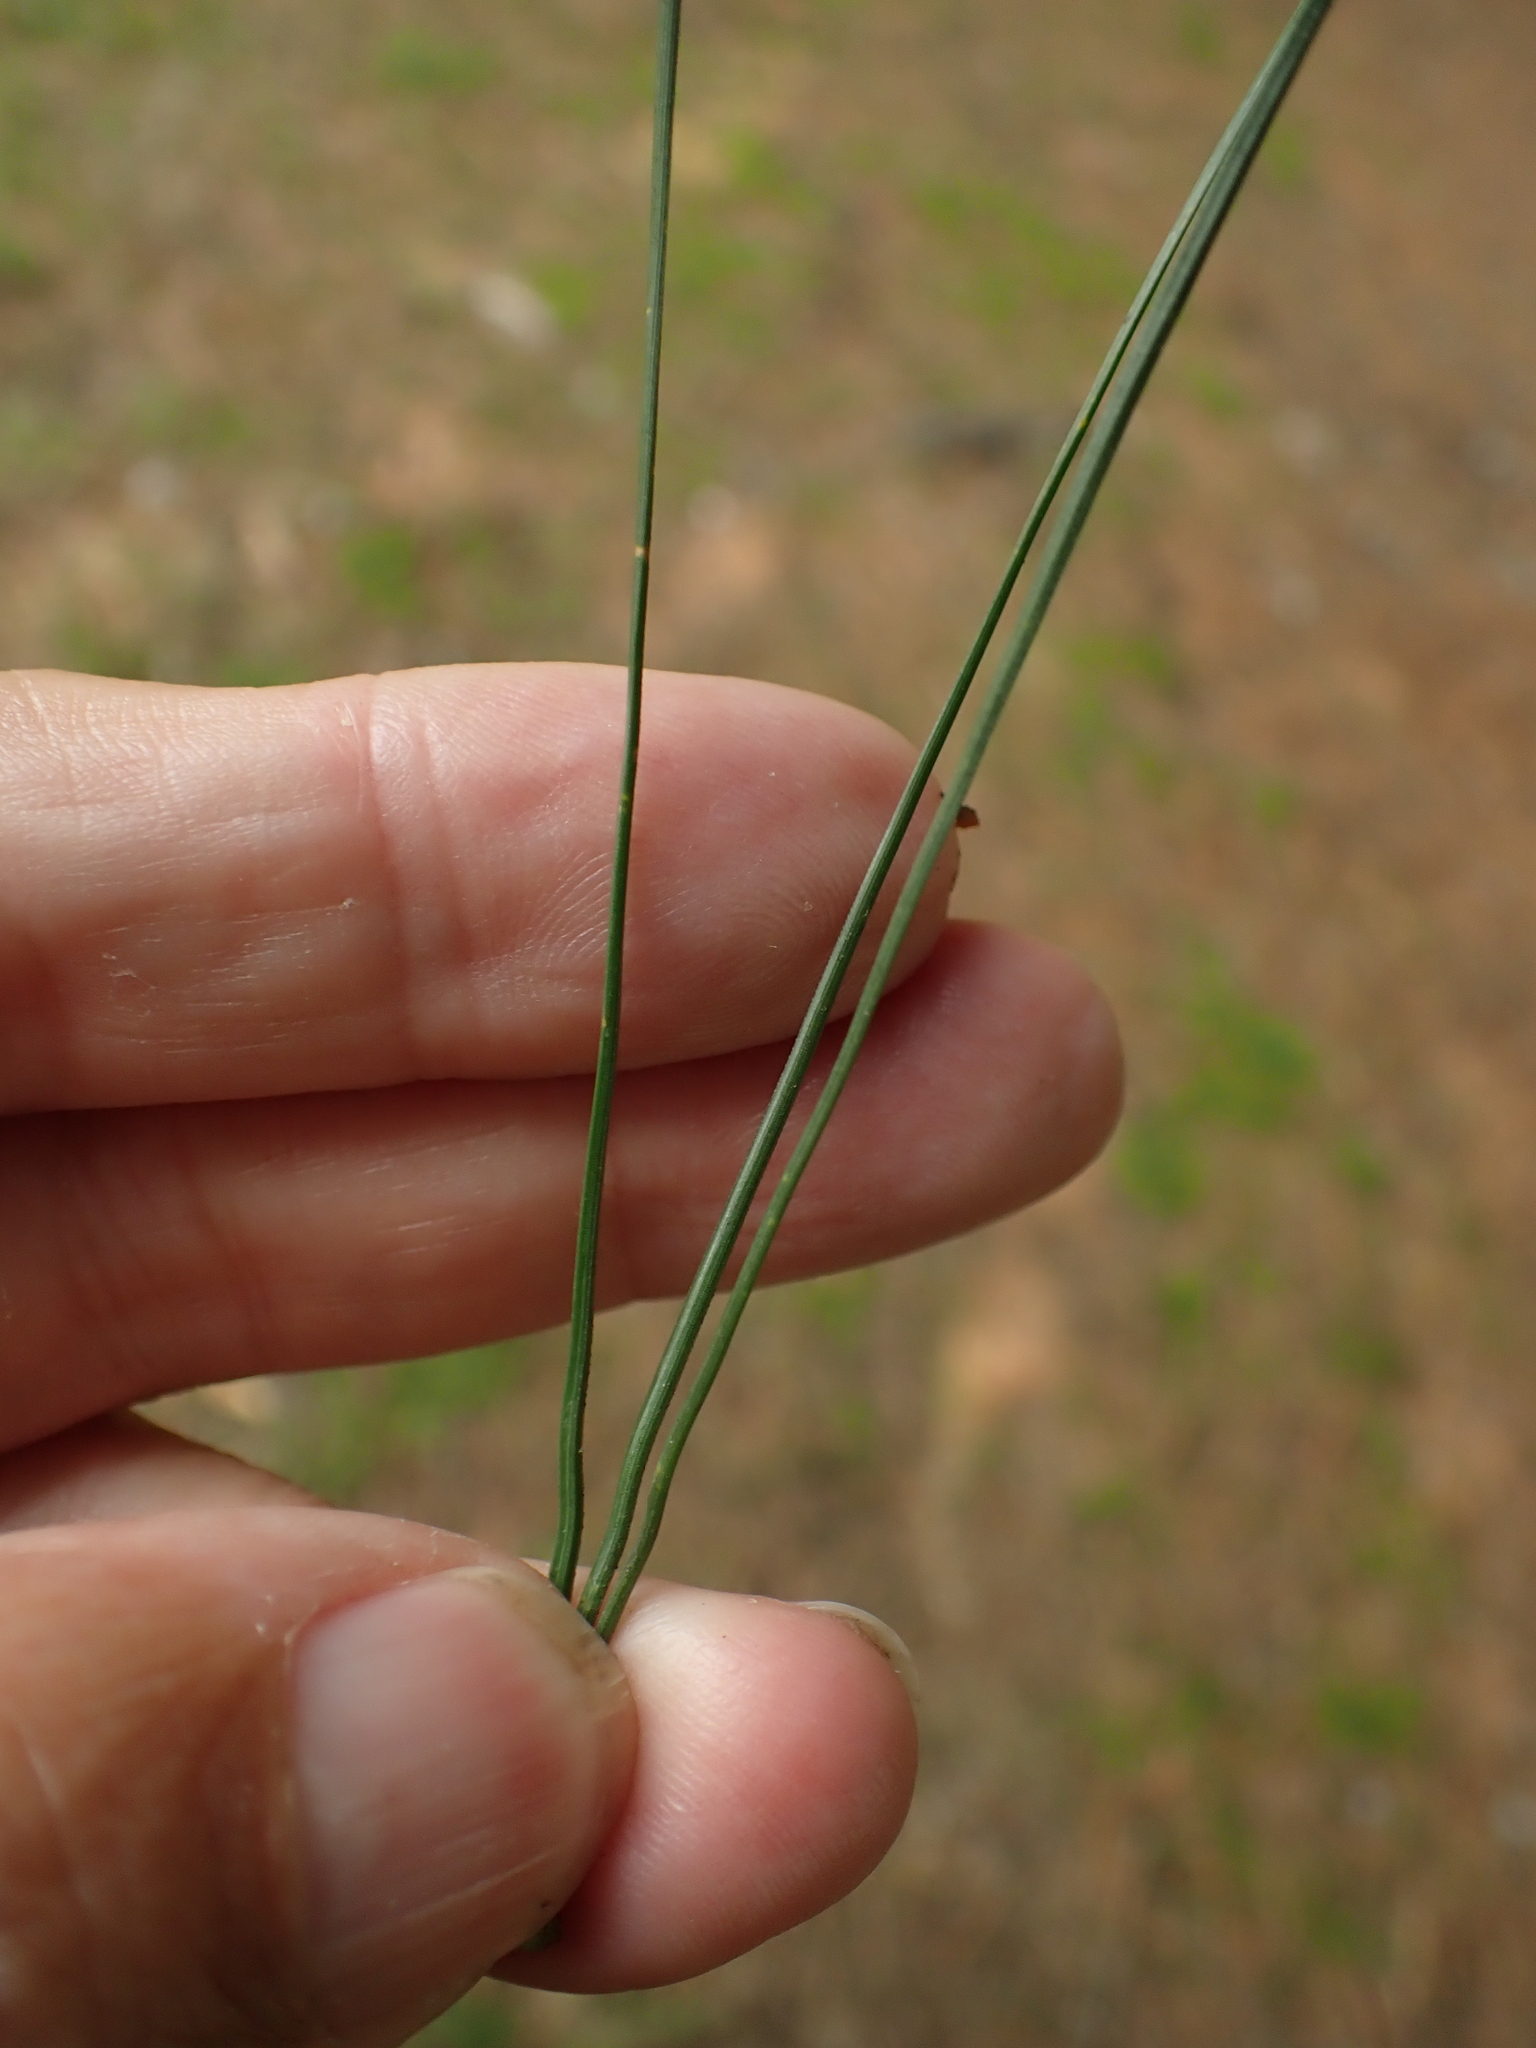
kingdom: Plantae
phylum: Tracheophyta
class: Pinopsida
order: Pinales
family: Pinaceae
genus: Pinus
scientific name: Pinus radiata
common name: Monterey pine
